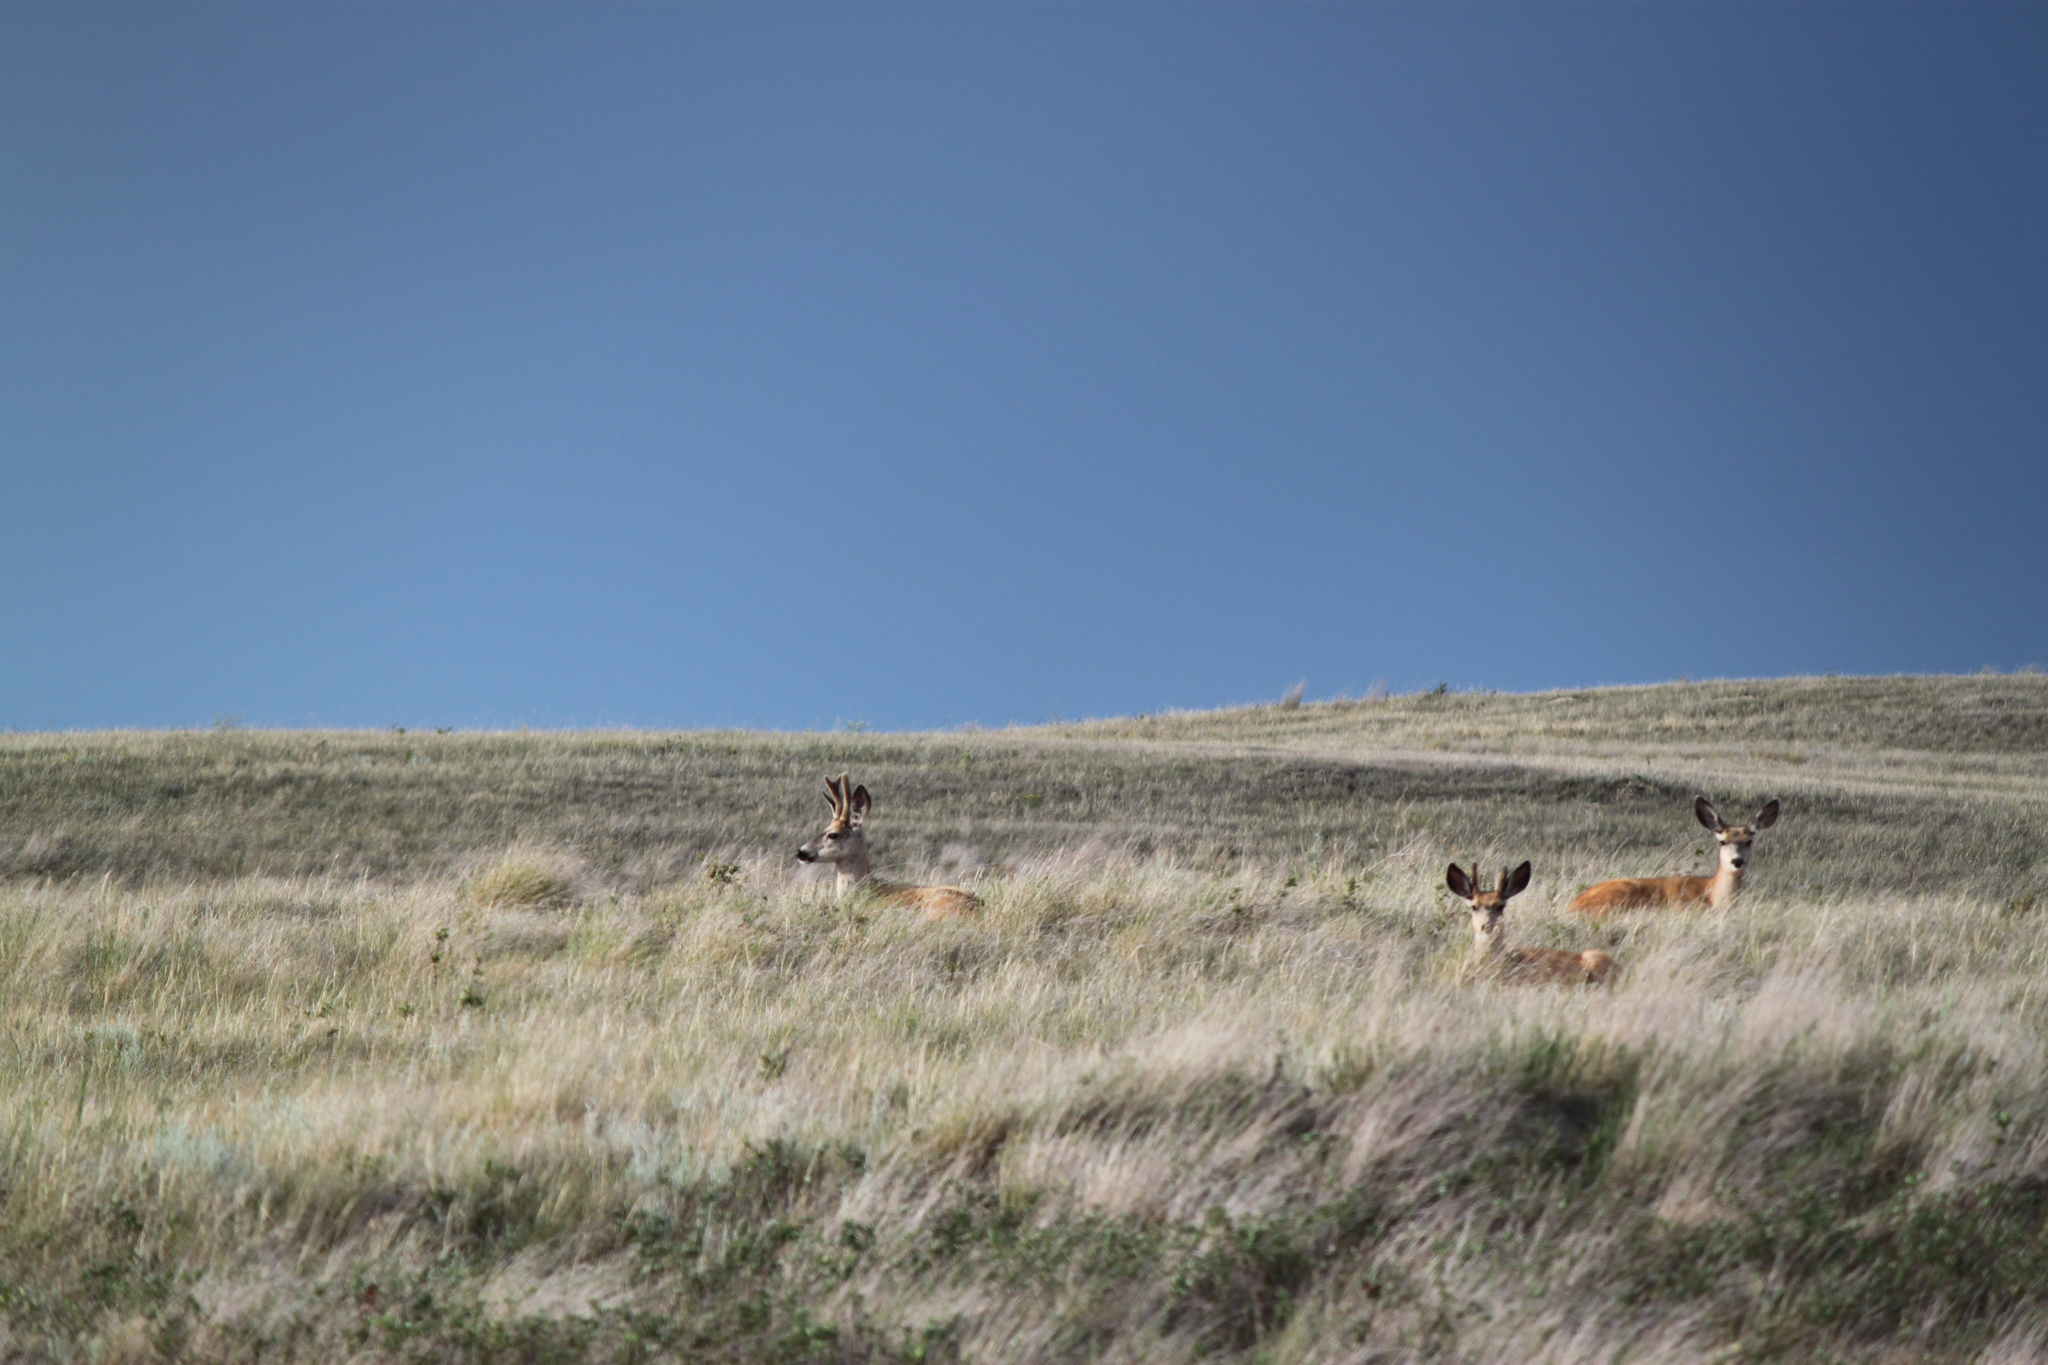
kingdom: Animalia
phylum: Chordata
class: Mammalia
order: Artiodactyla
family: Cervidae
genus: Odocoileus
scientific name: Odocoileus hemionus
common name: Mule deer
